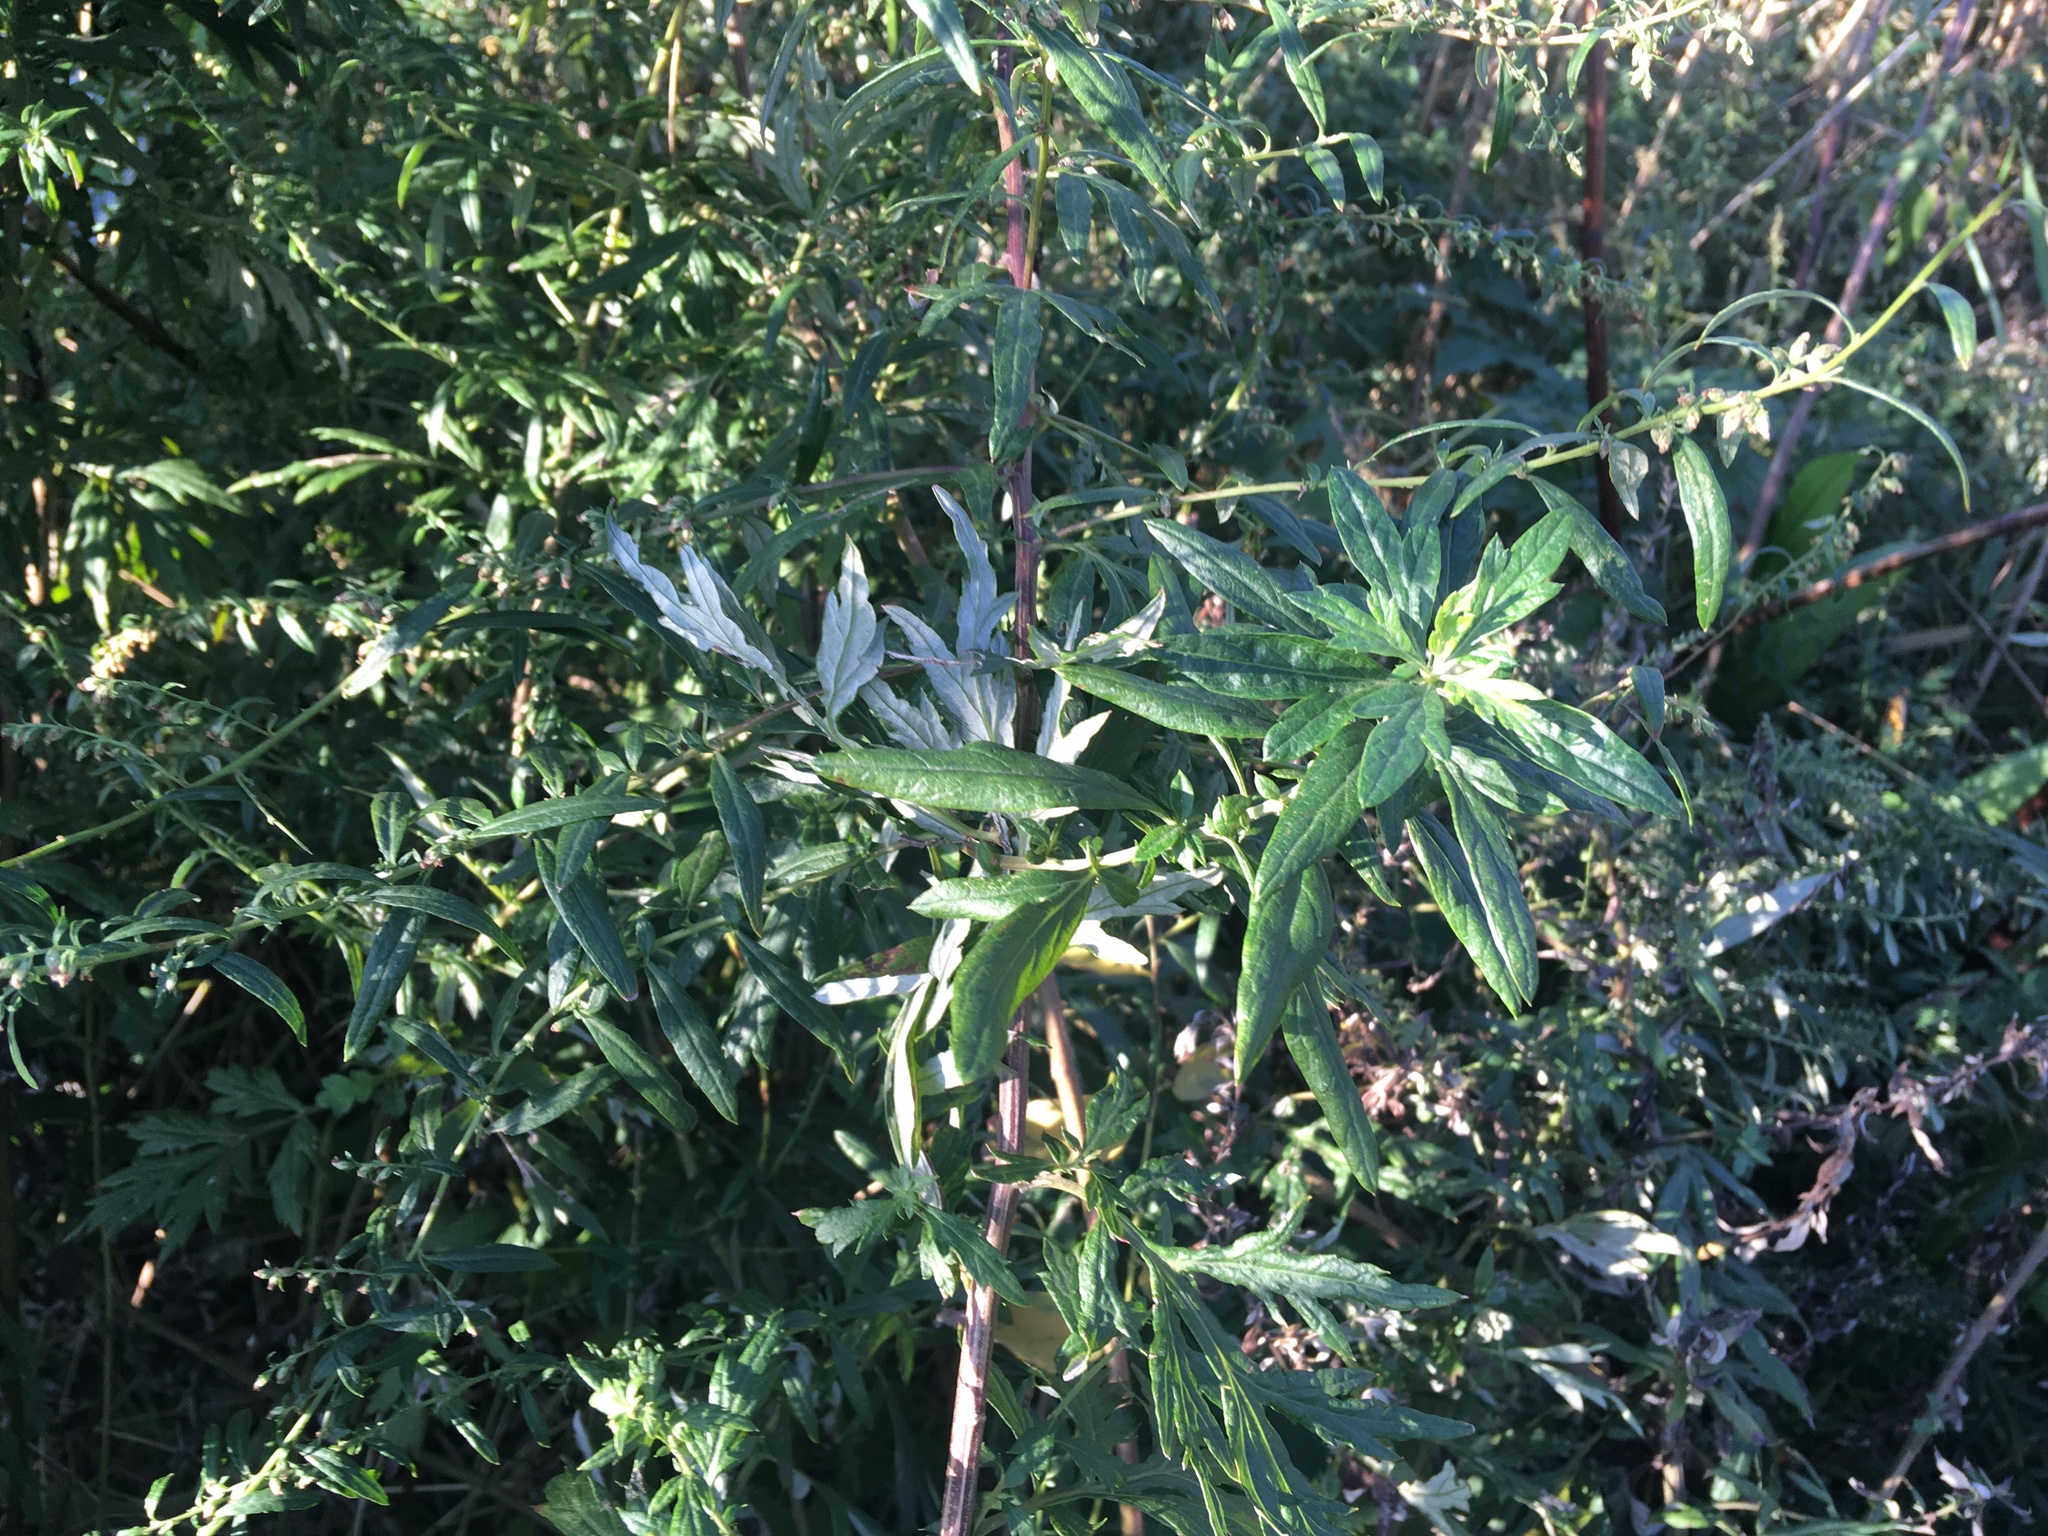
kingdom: Plantae
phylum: Tracheophyta
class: Magnoliopsida
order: Asterales
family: Asteraceae
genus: Artemisia
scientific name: Artemisia vulgaris
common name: Mugwort
